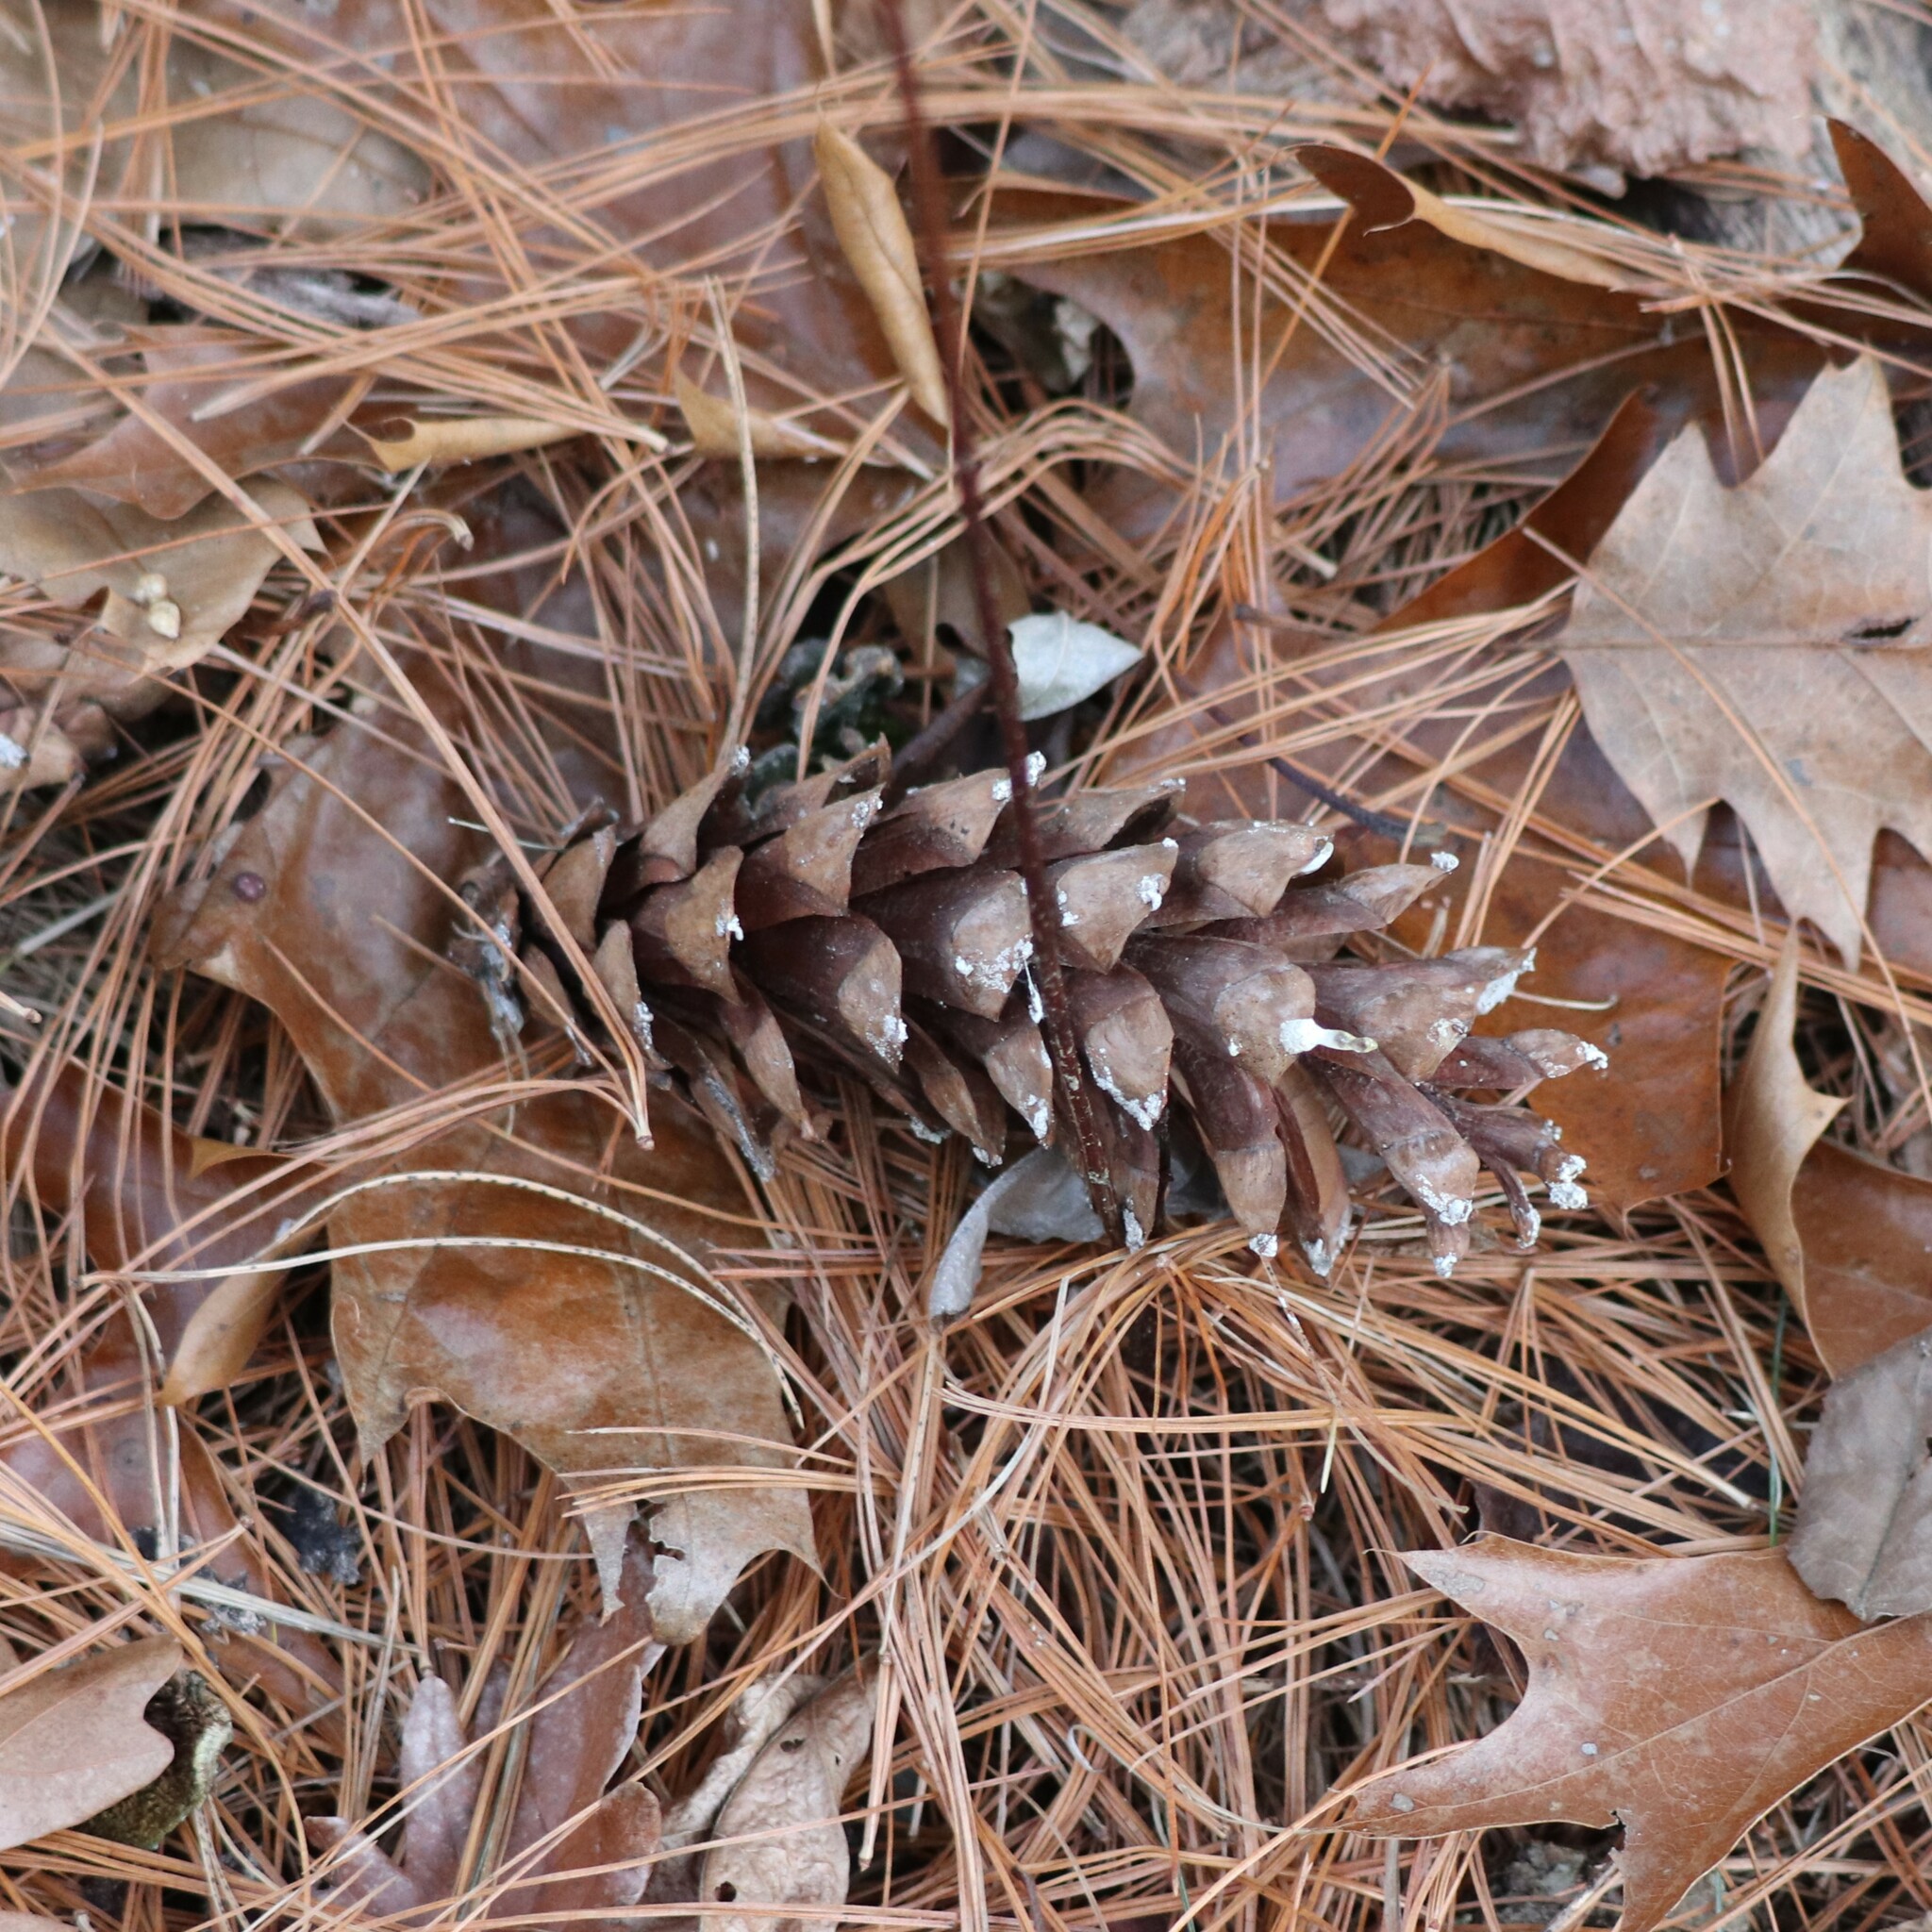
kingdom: Plantae
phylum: Tracheophyta
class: Pinopsida
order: Pinales
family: Pinaceae
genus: Pinus
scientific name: Pinus strobus
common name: Weymouth pine
